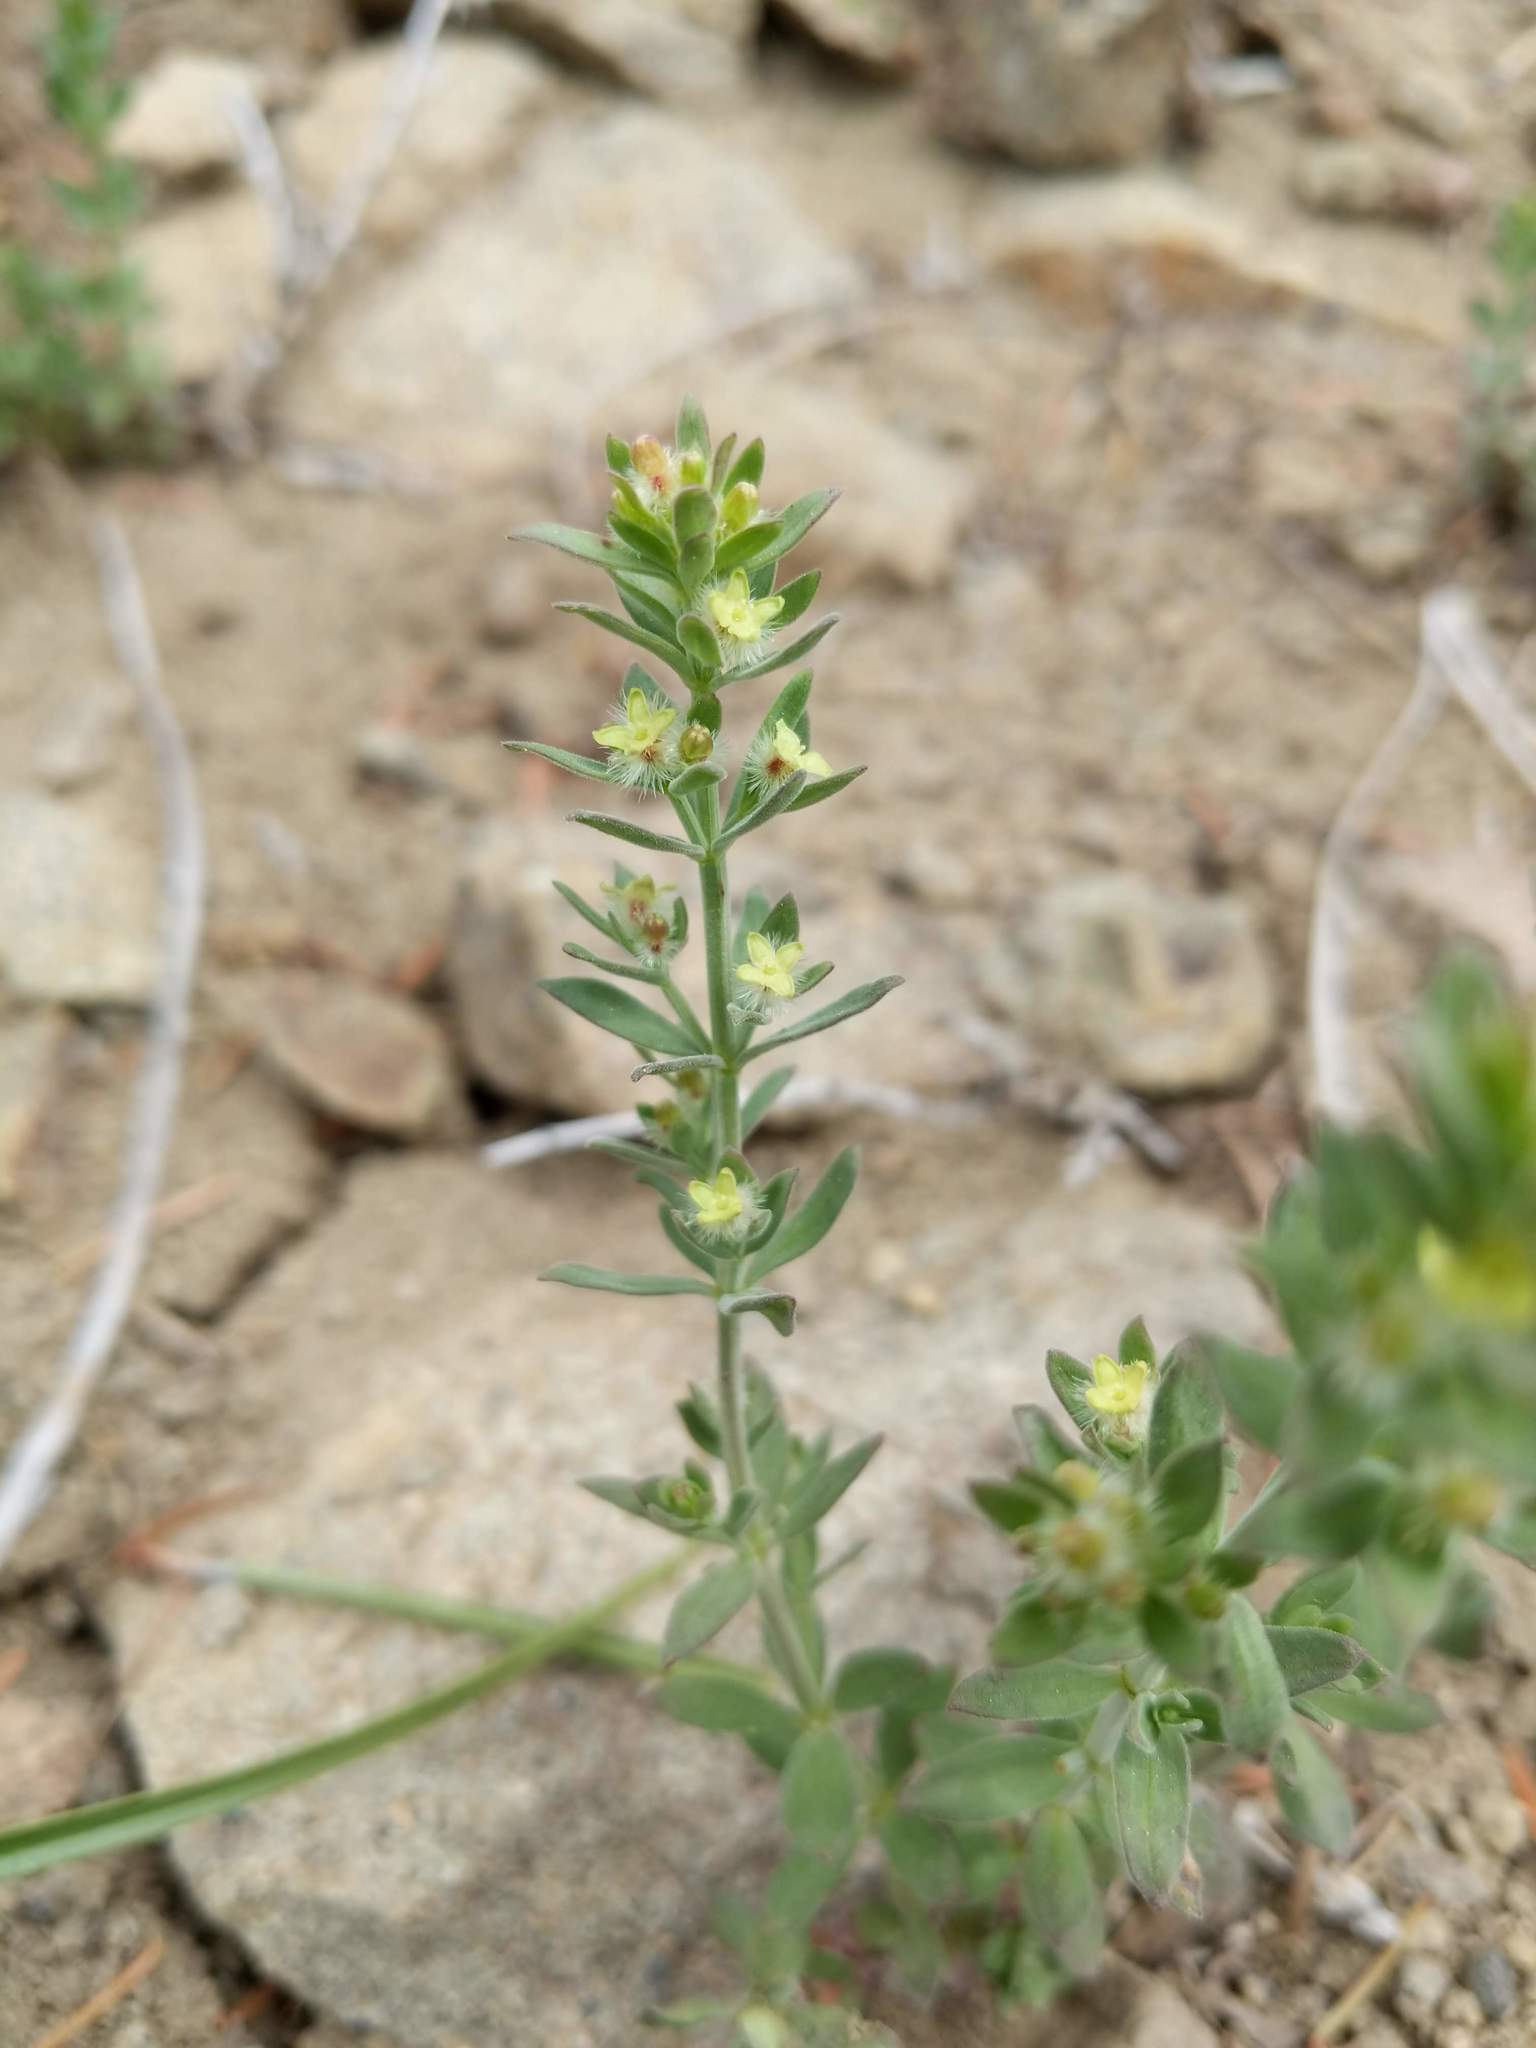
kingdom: Plantae
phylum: Tracheophyta
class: Magnoliopsida
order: Gentianales
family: Rubiaceae
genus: Galium
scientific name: Galium serpenticum
